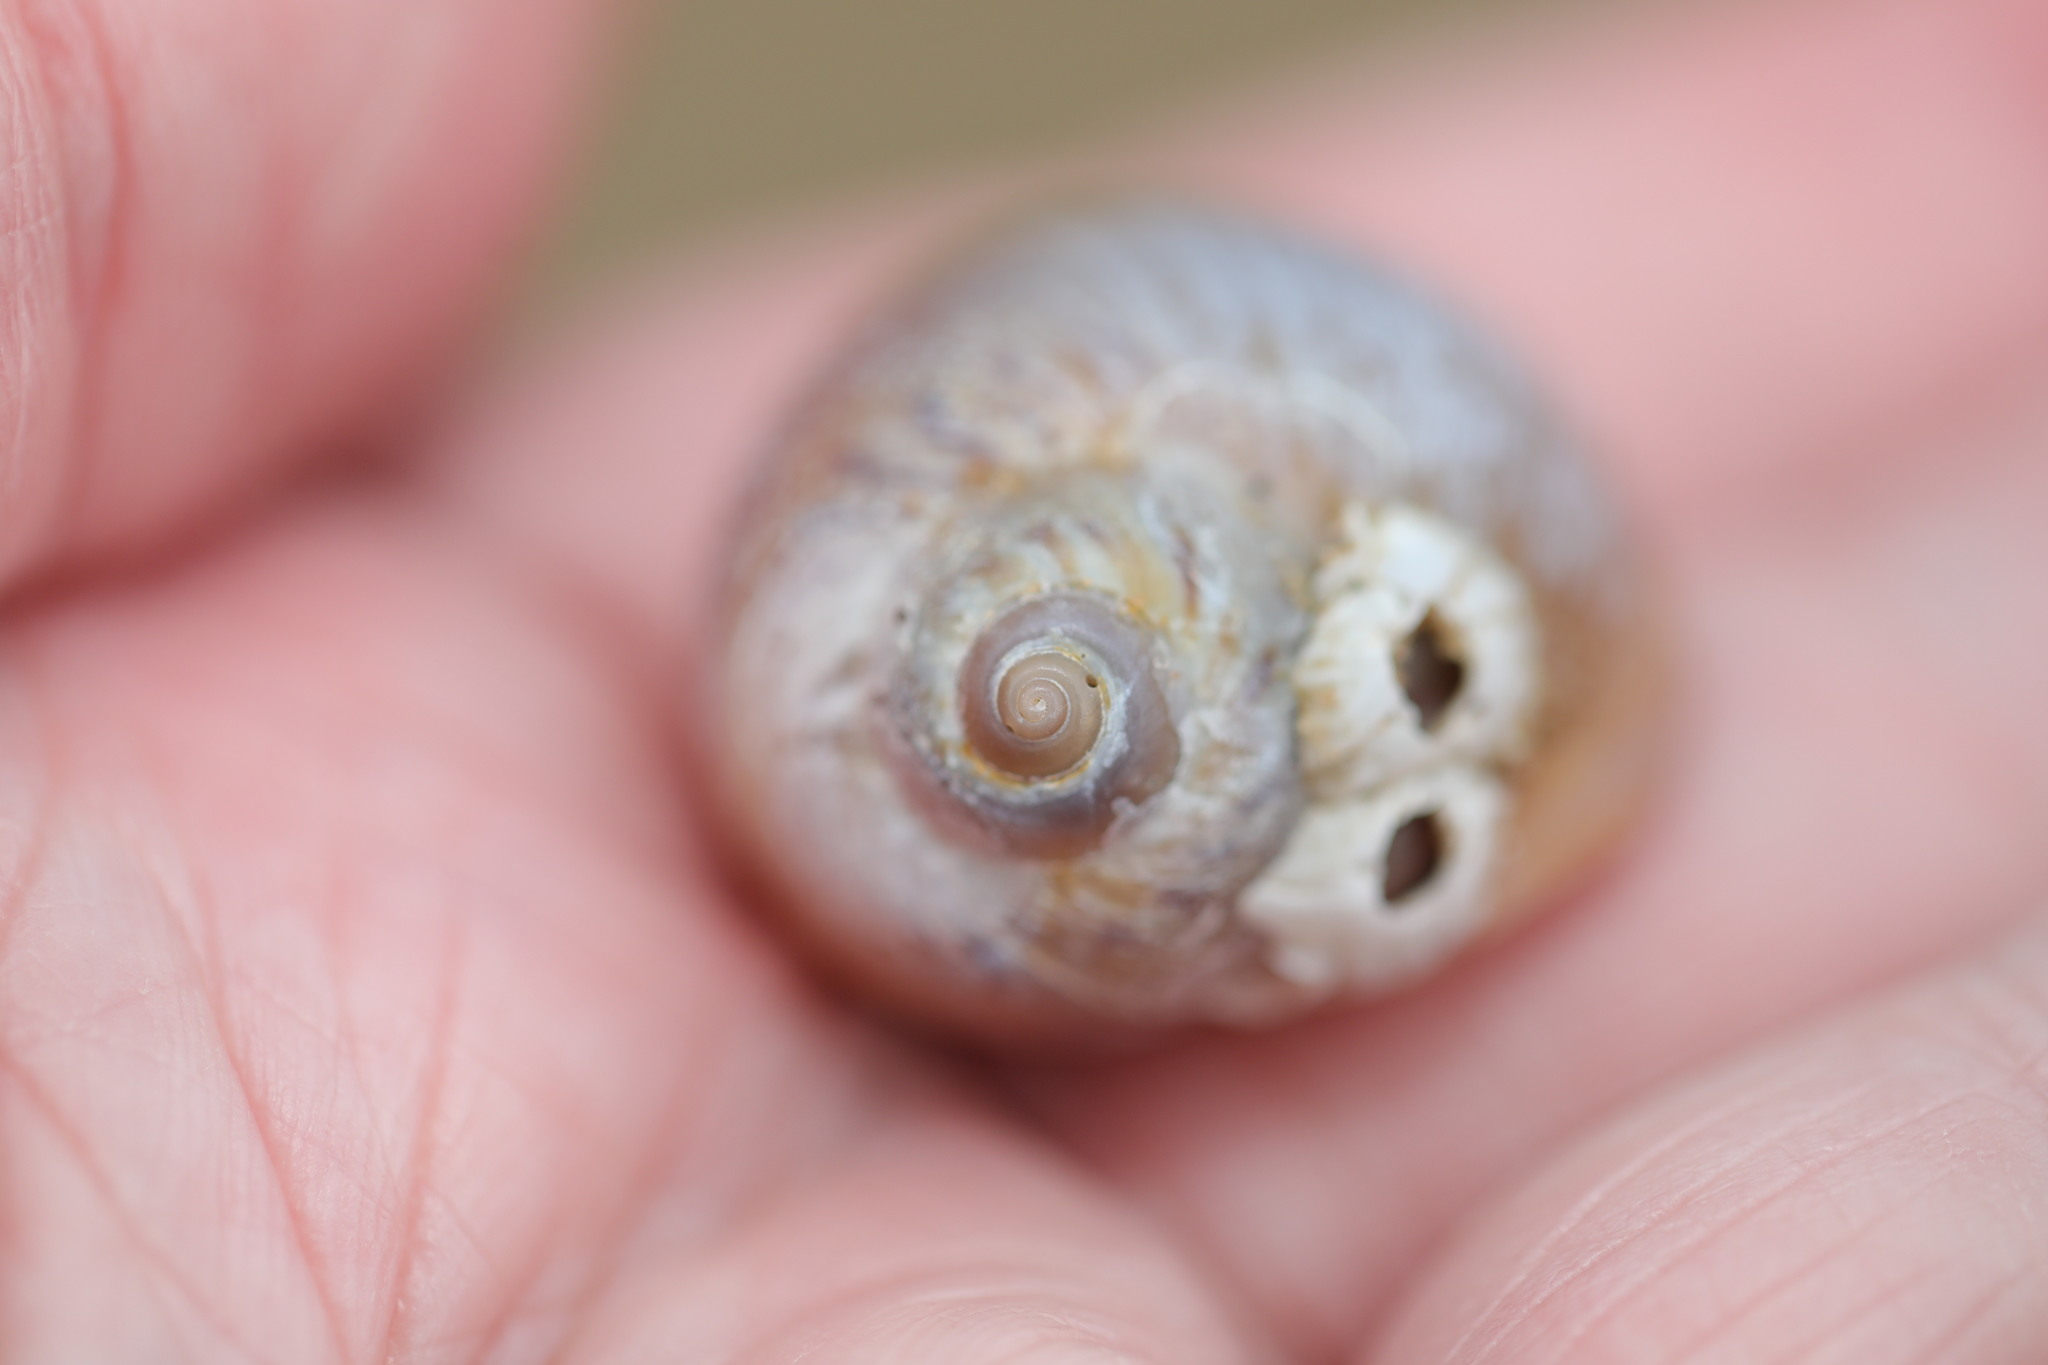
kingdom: Animalia
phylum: Mollusca
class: Gastropoda
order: Littorinimorpha
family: Naticidae
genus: Euspira
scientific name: Euspira catena
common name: Necklace shell
